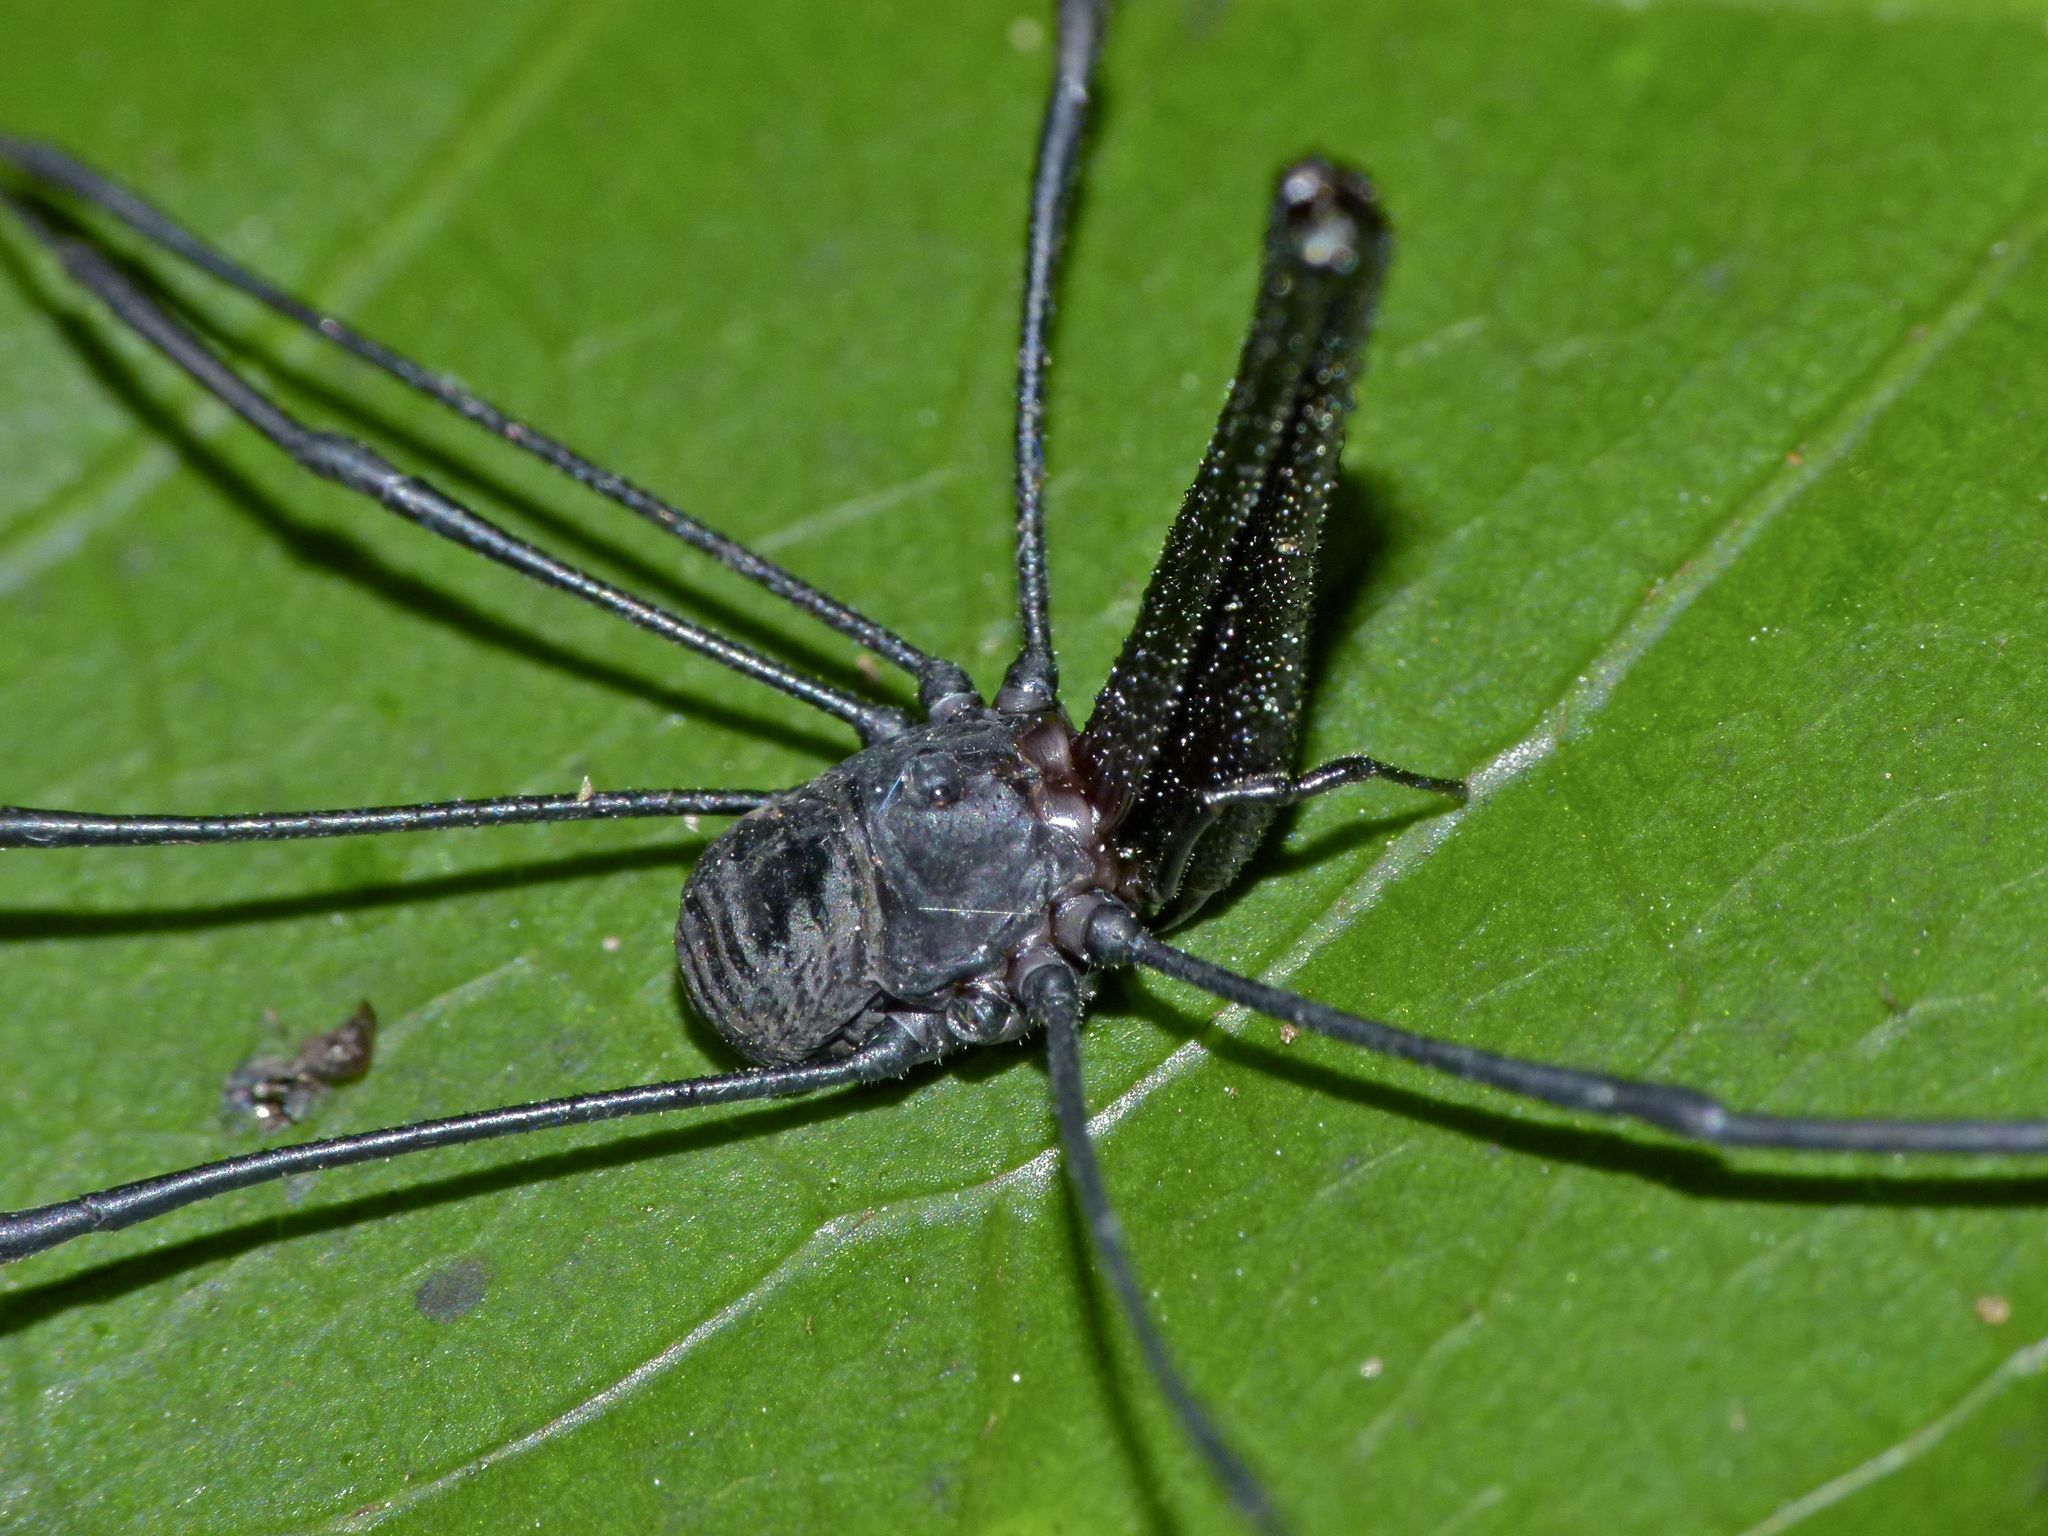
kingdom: Animalia
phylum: Arthropoda
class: Arachnida
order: Opiliones
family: Neopilionidae
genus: Pantopsalis
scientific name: Pantopsalis albipalpis
